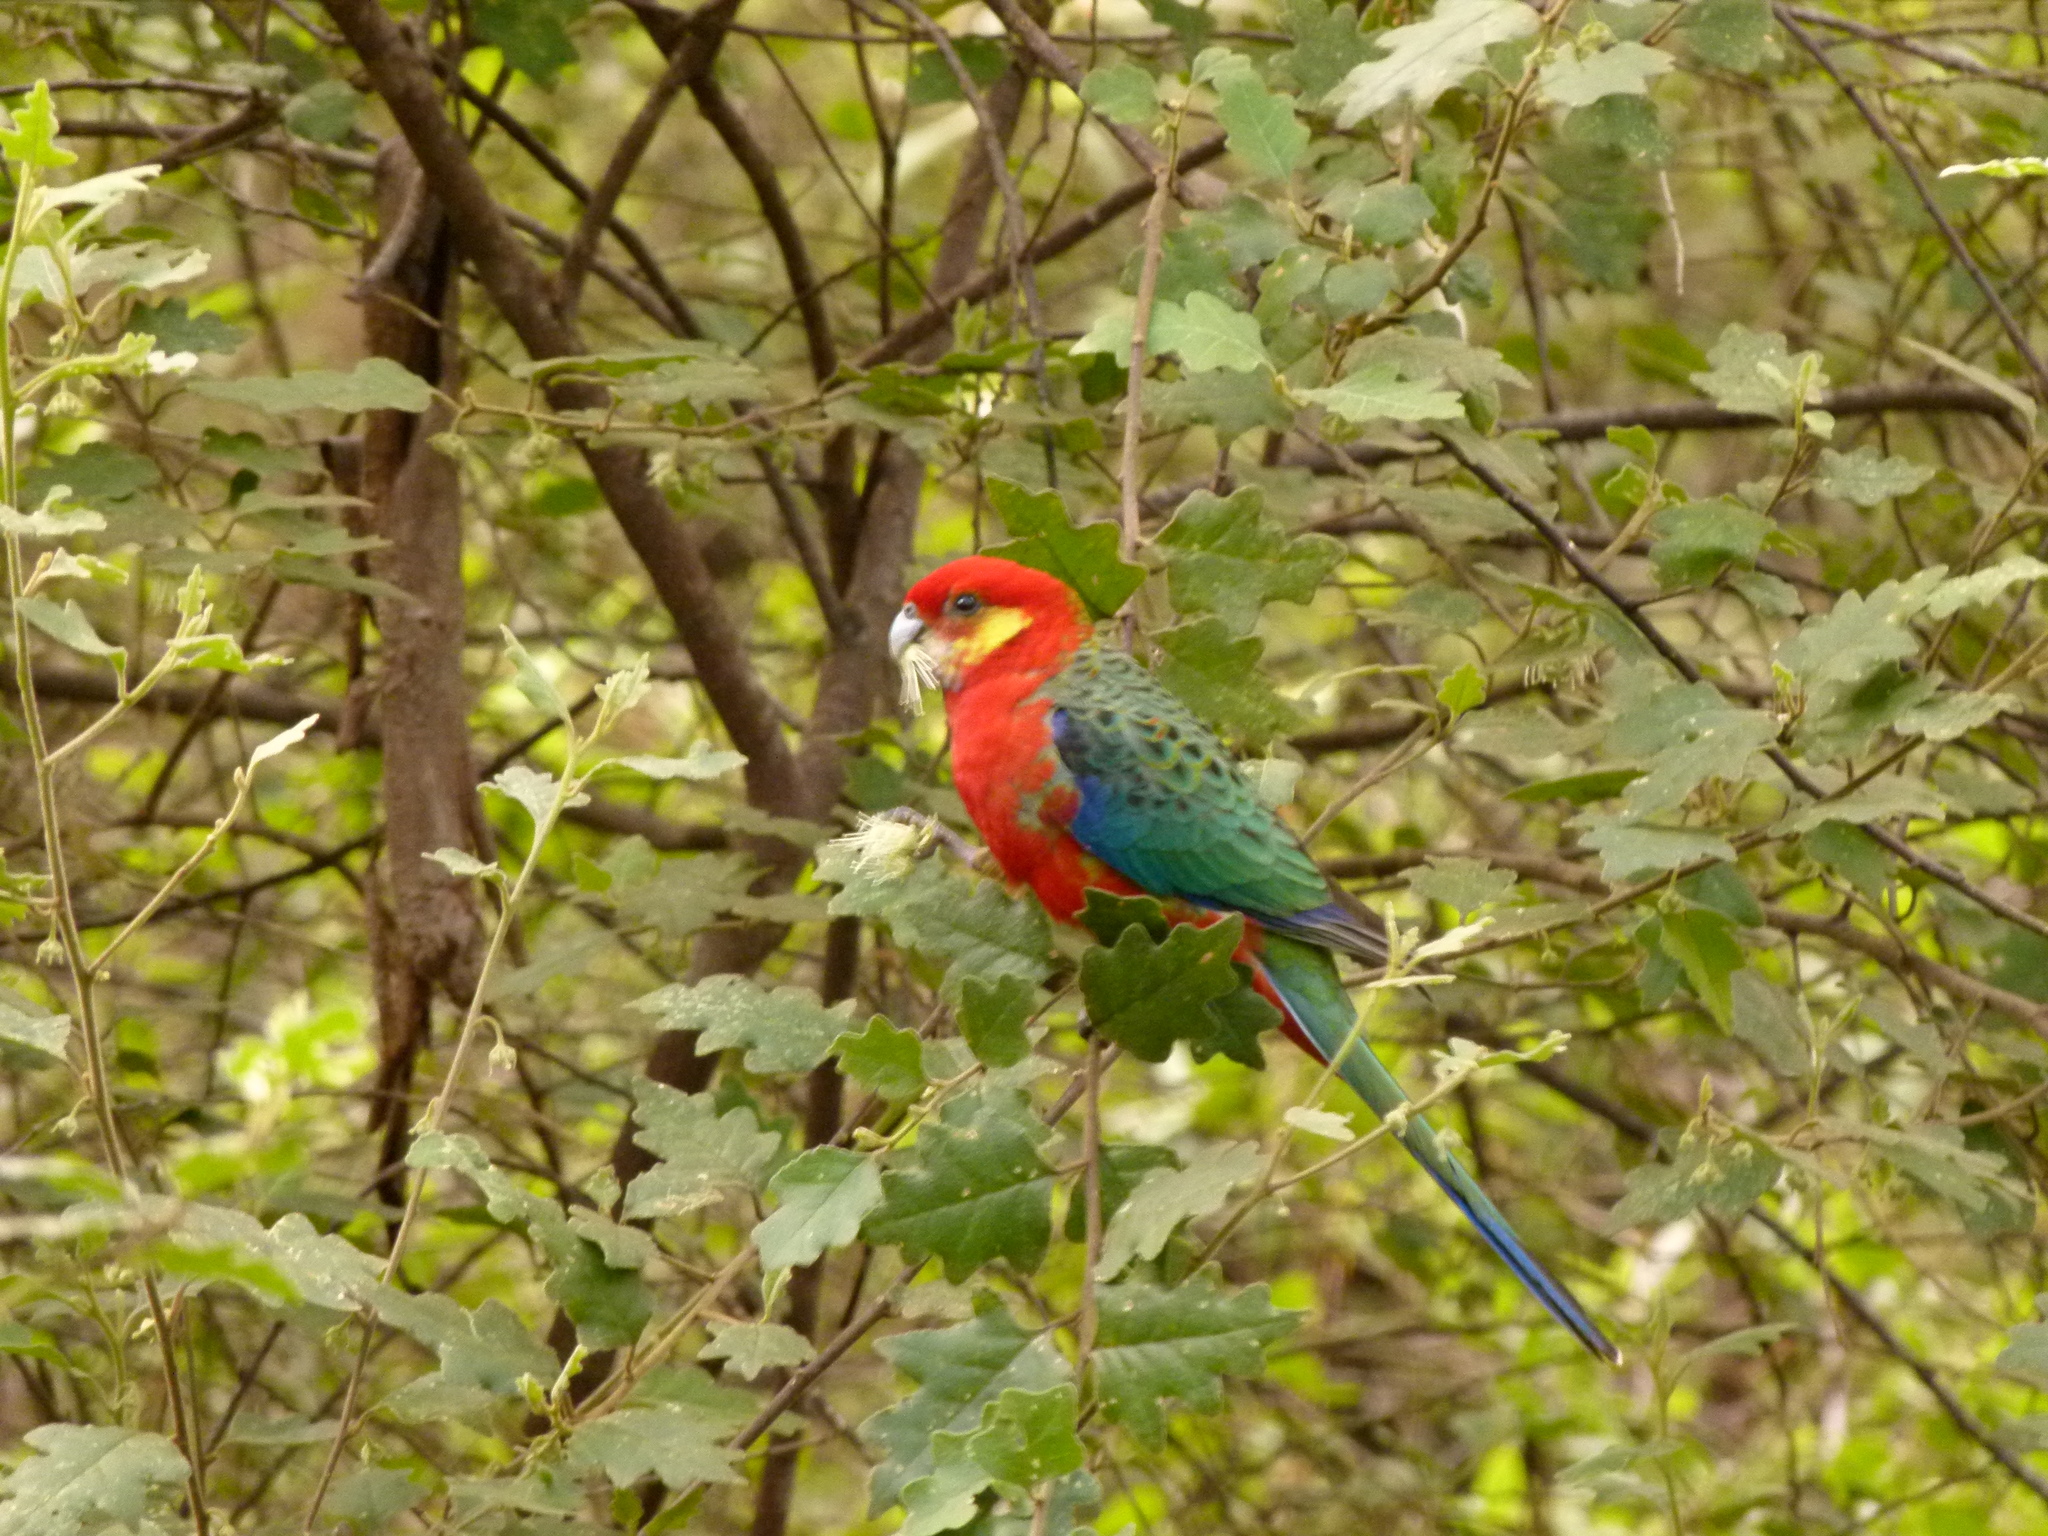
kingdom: Animalia
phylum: Chordata
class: Aves
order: Psittaciformes
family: Psittacidae
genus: Platycercus
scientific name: Platycercus icterotis
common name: Western rosella
